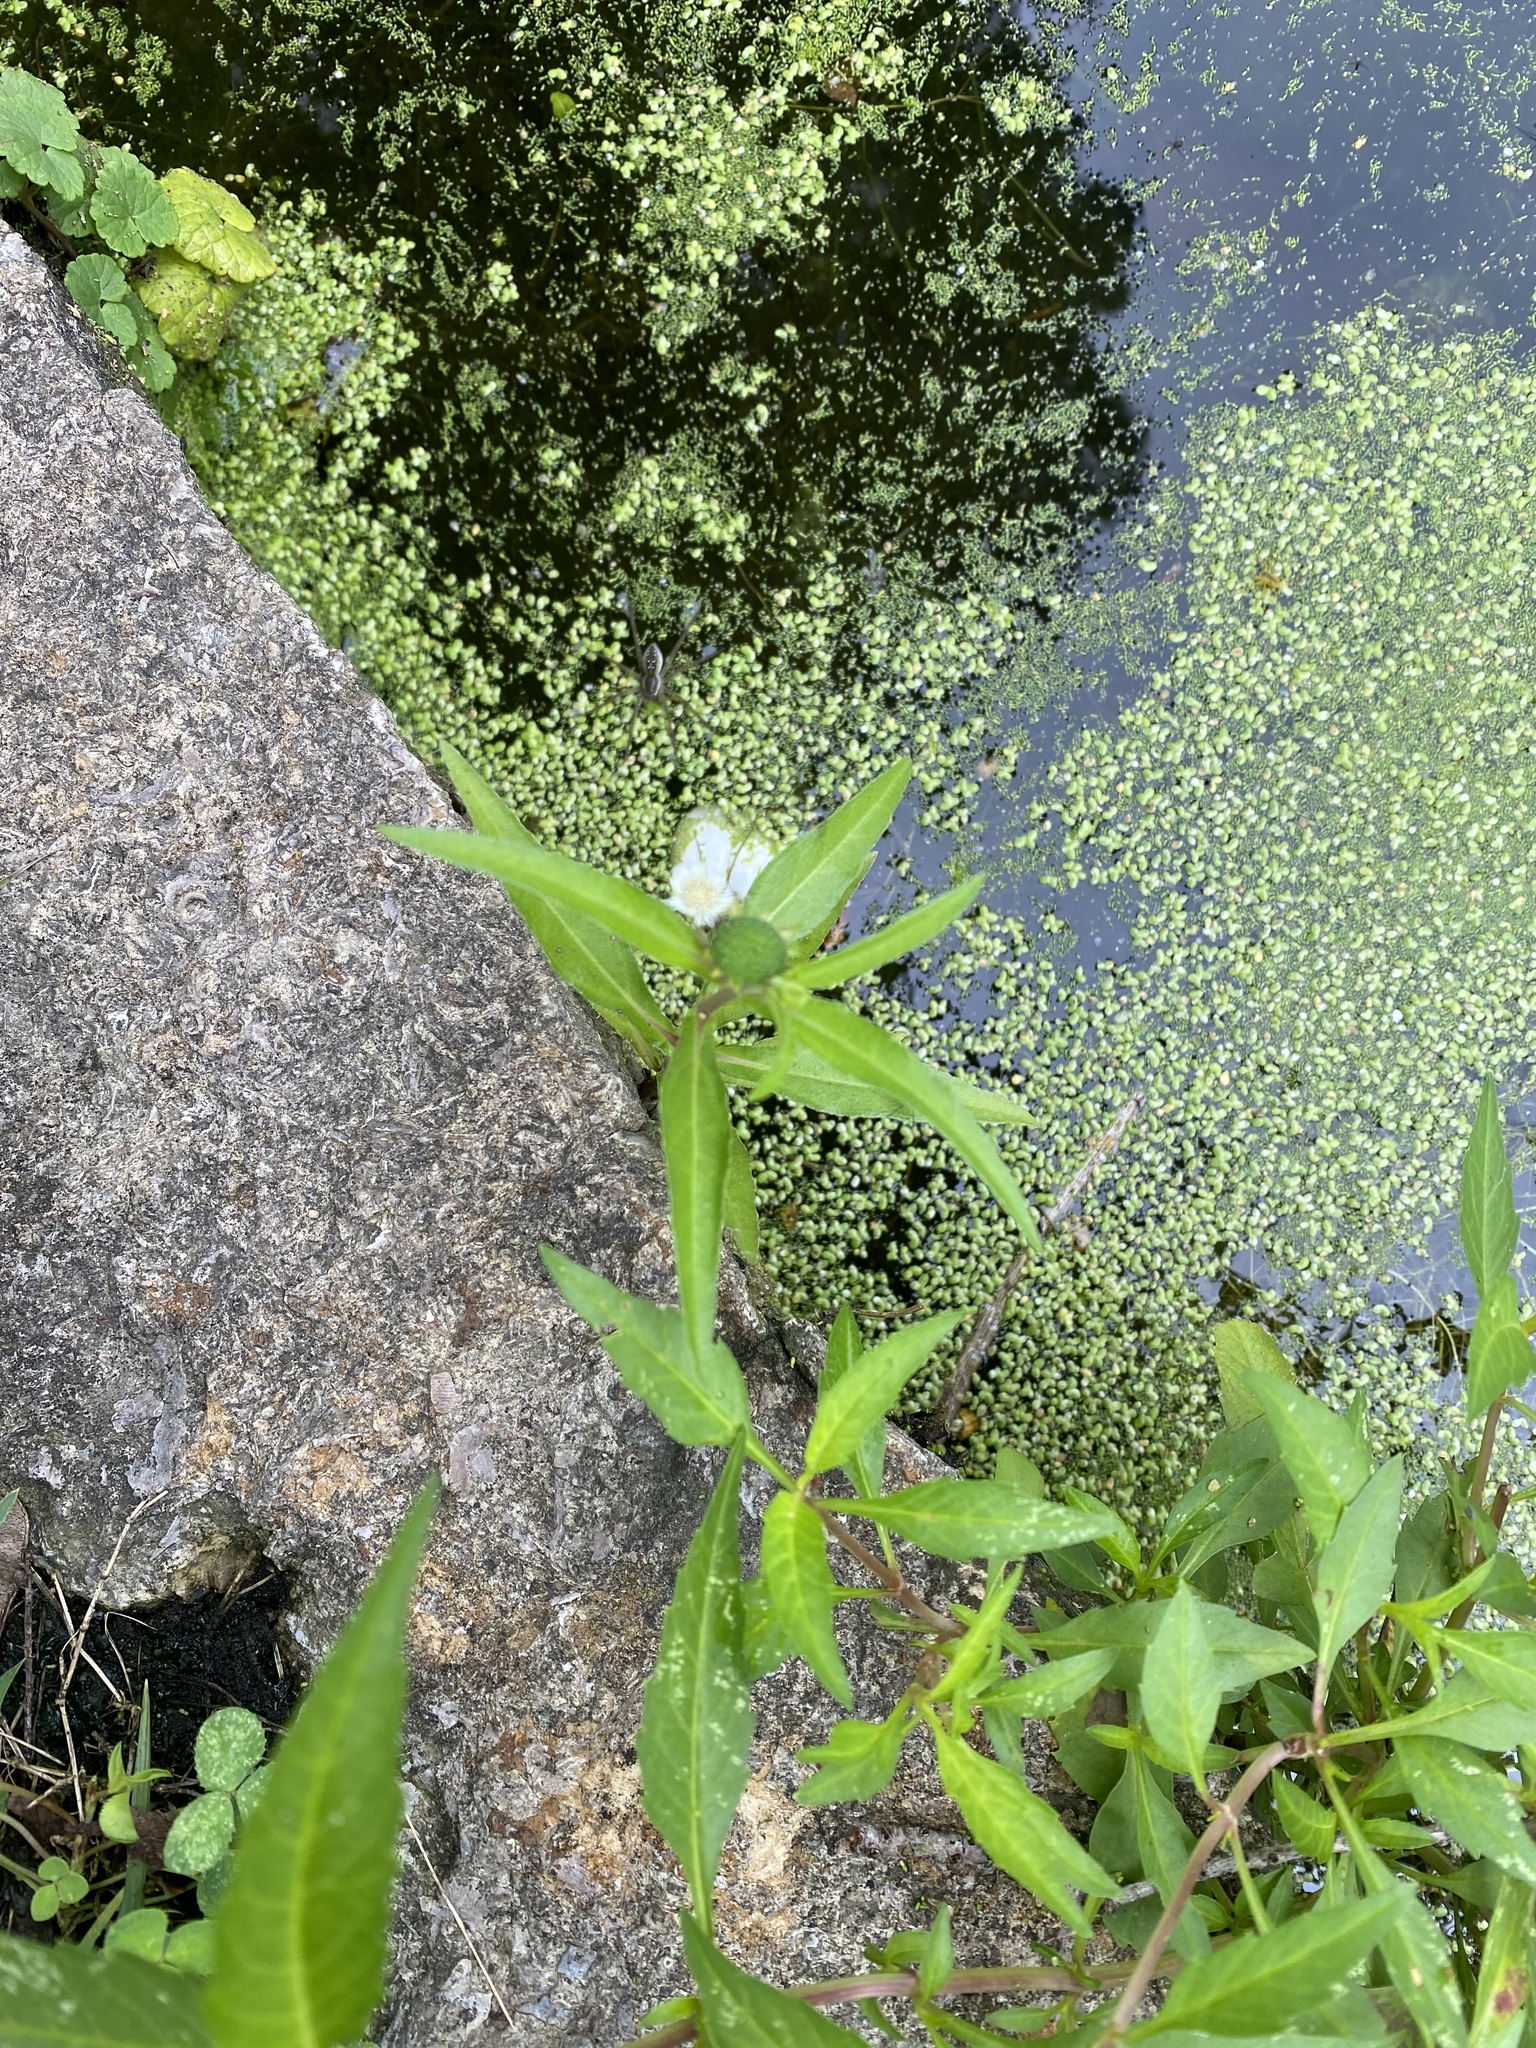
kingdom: Plantae
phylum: Tracheophyta
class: Magnoliopsida
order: Asterales
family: Asteraceae
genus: Eclipta
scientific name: Eclipta prostrata
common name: False daisy
